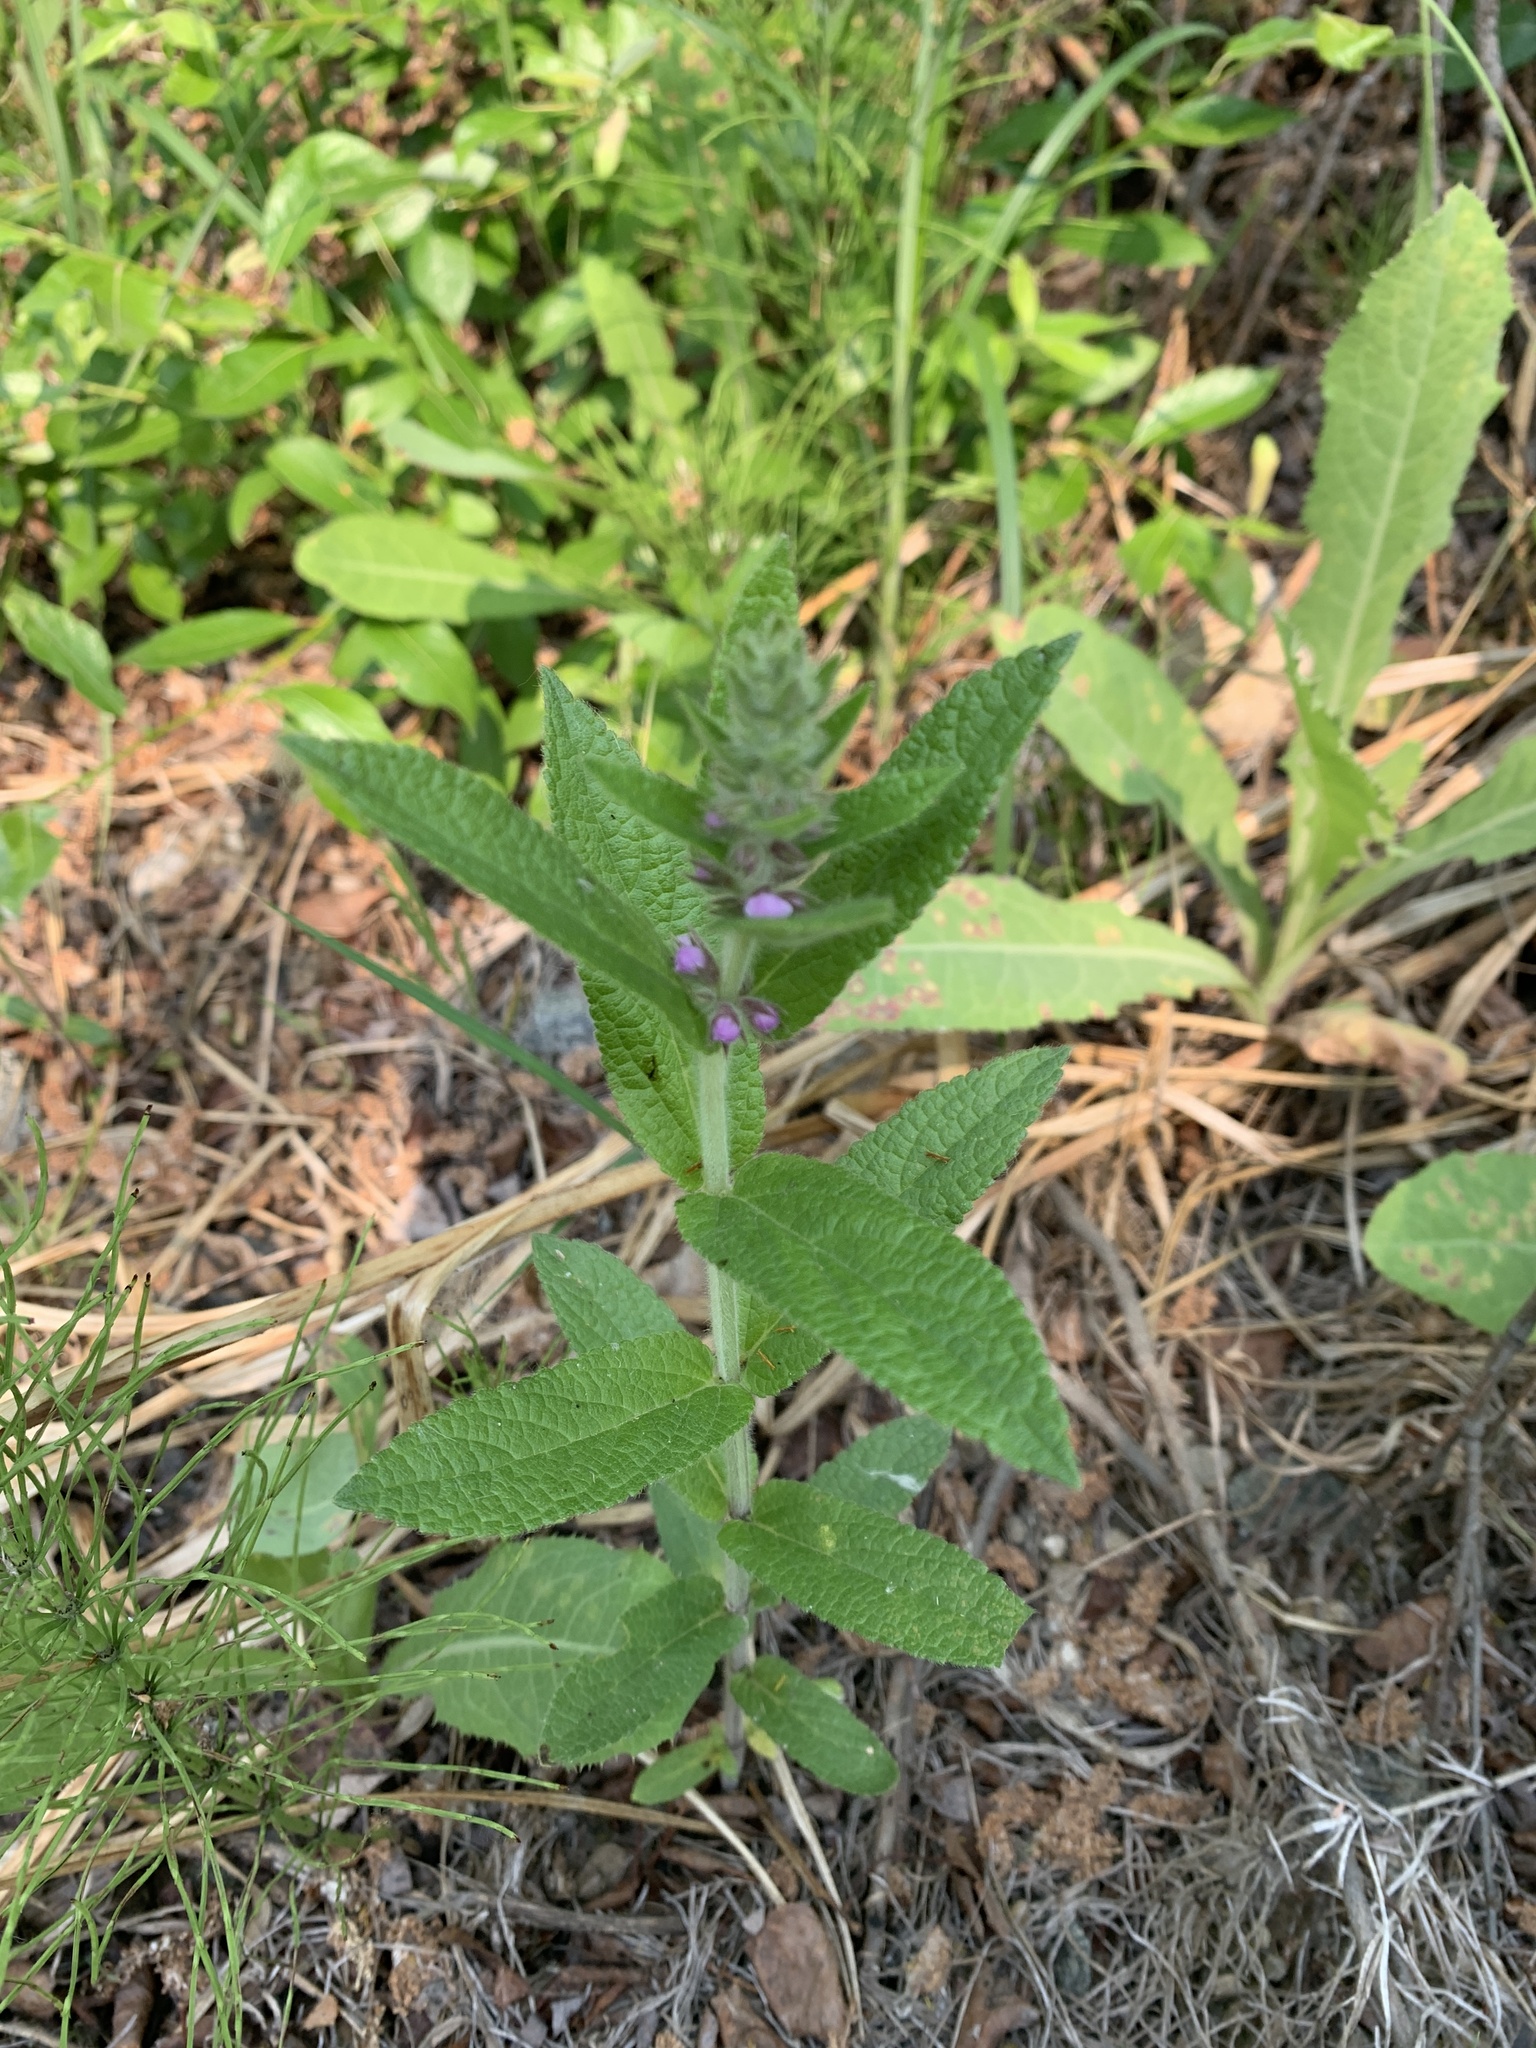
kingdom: Plantae
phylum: Tracheophyta
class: Magnoliopsida
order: Lamiales
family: Lamiaceae
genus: Stachys
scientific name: Stachys pilosa
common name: Hairy hedge-nettle
